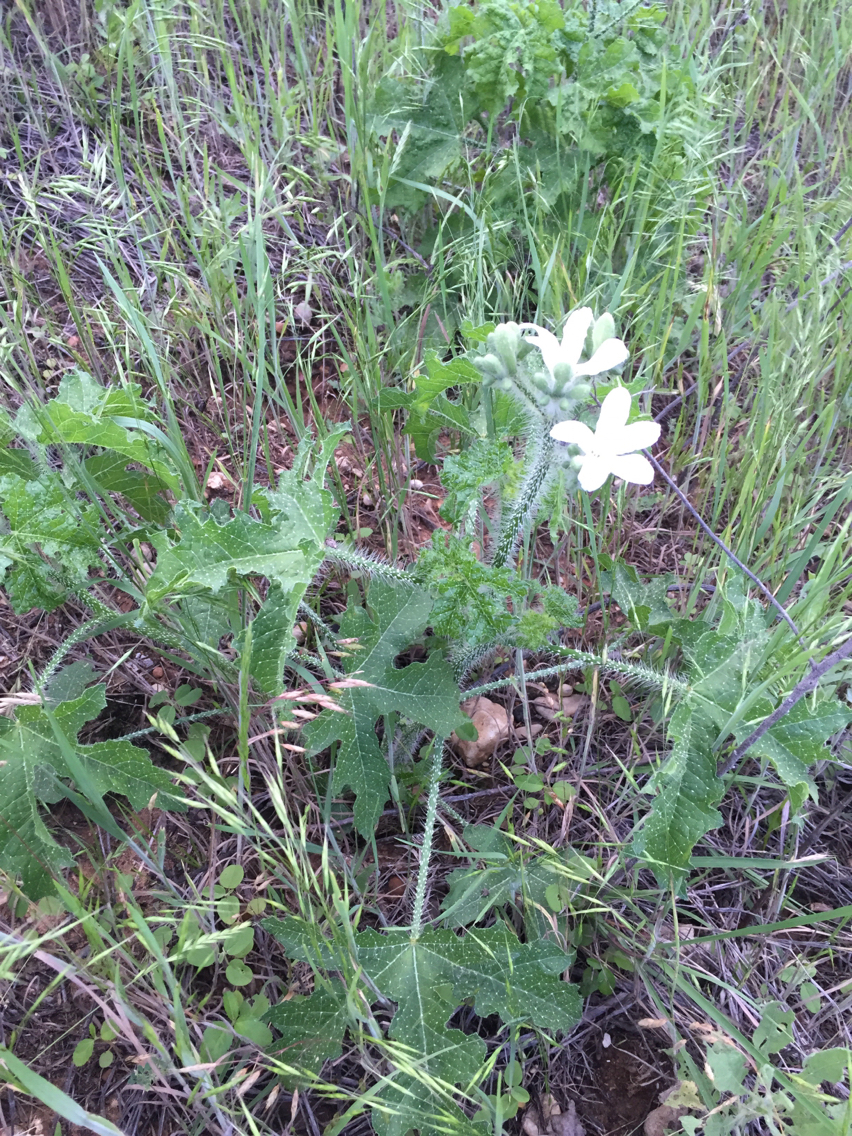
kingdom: Plantae
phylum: Tracheophyta
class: Magnoliopsida
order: Malpighiales
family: Euphorbiaceae
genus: Cnidoscolus
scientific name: Cnidoscolus texanus
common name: Texas bull-nettle
